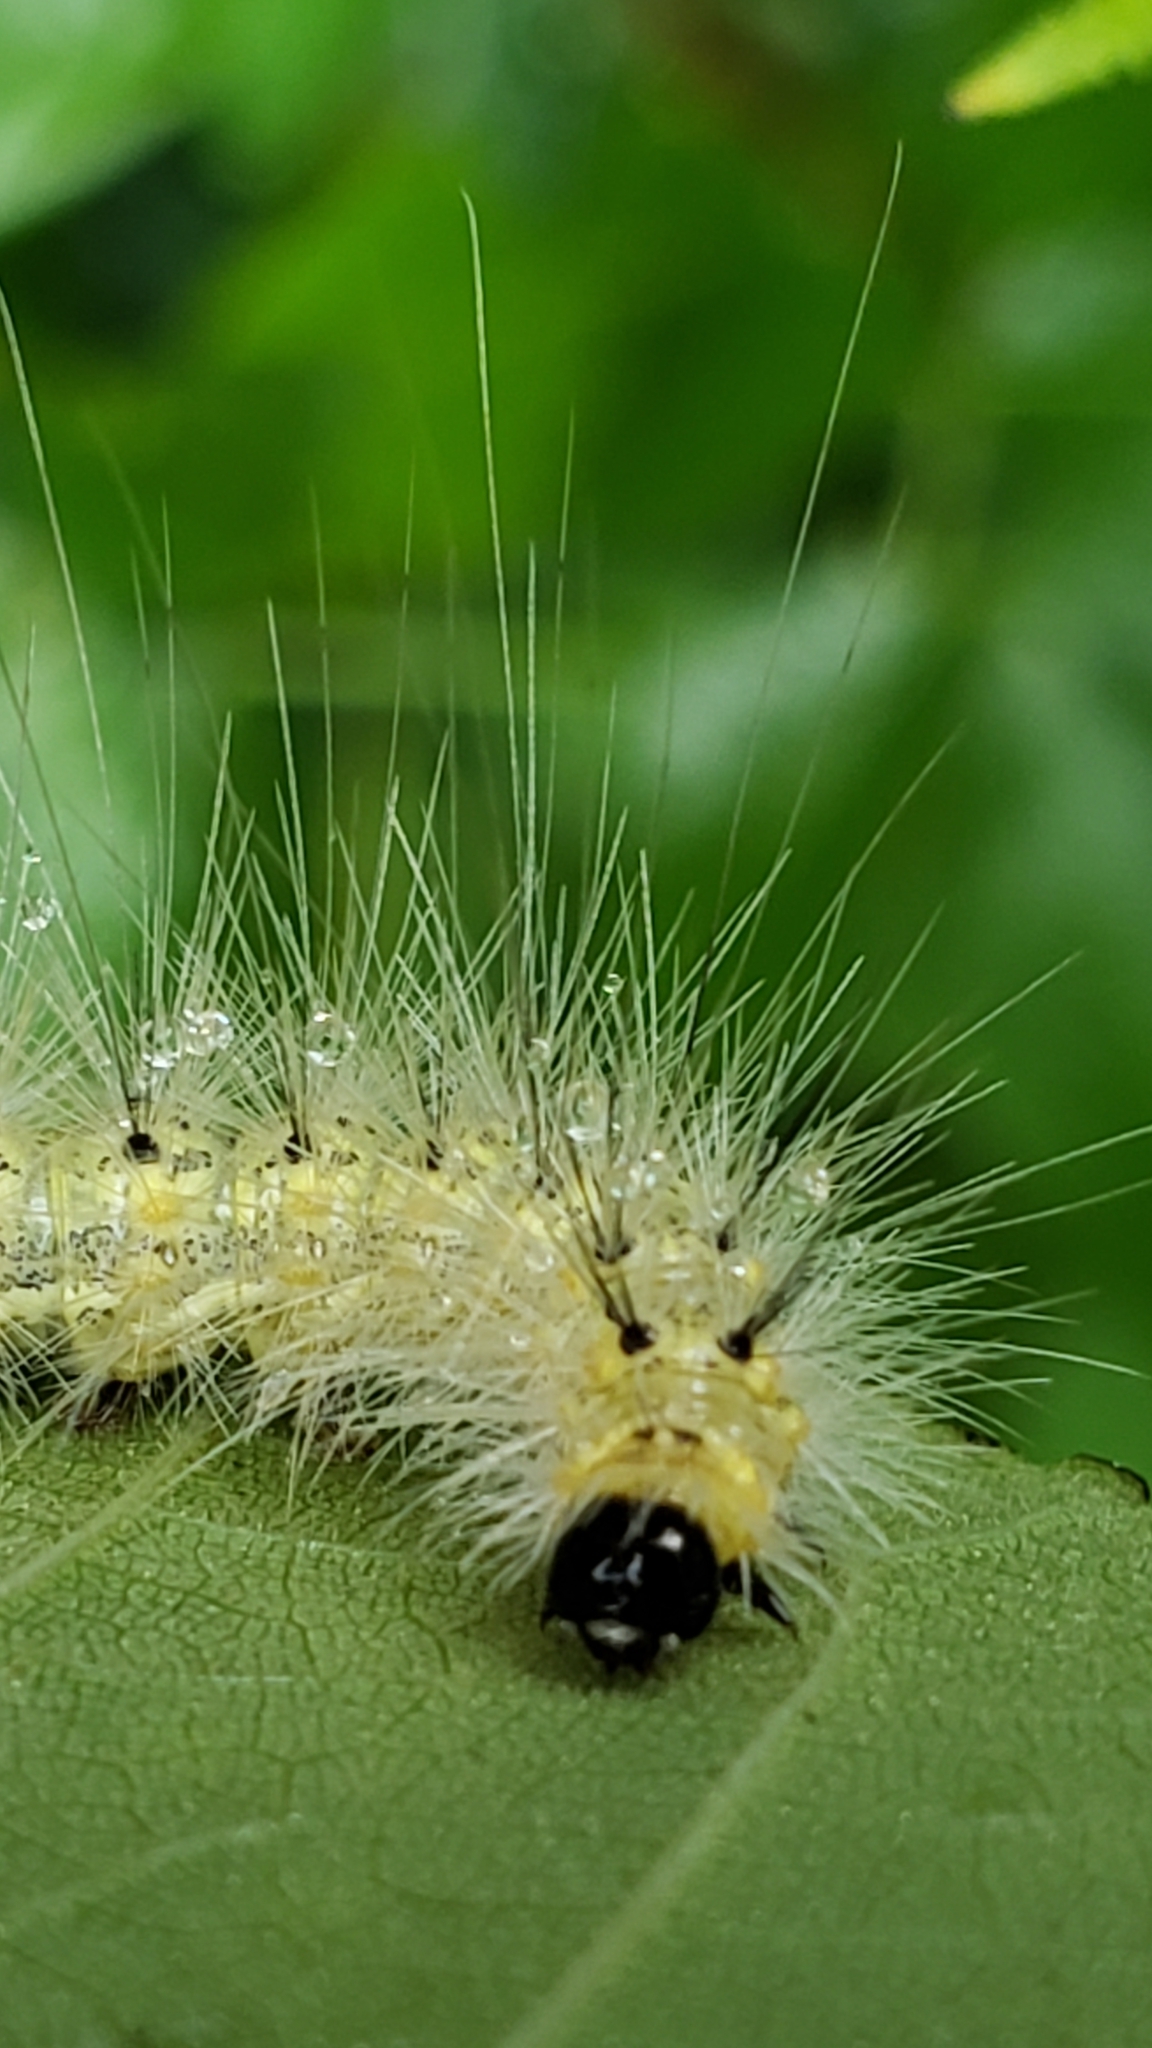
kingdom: Animalia
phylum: Arthropoda
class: Insecta
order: Lepidoptera
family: Erebidae
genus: Hyphantria
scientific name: Hyphantria cunea
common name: American white moth
